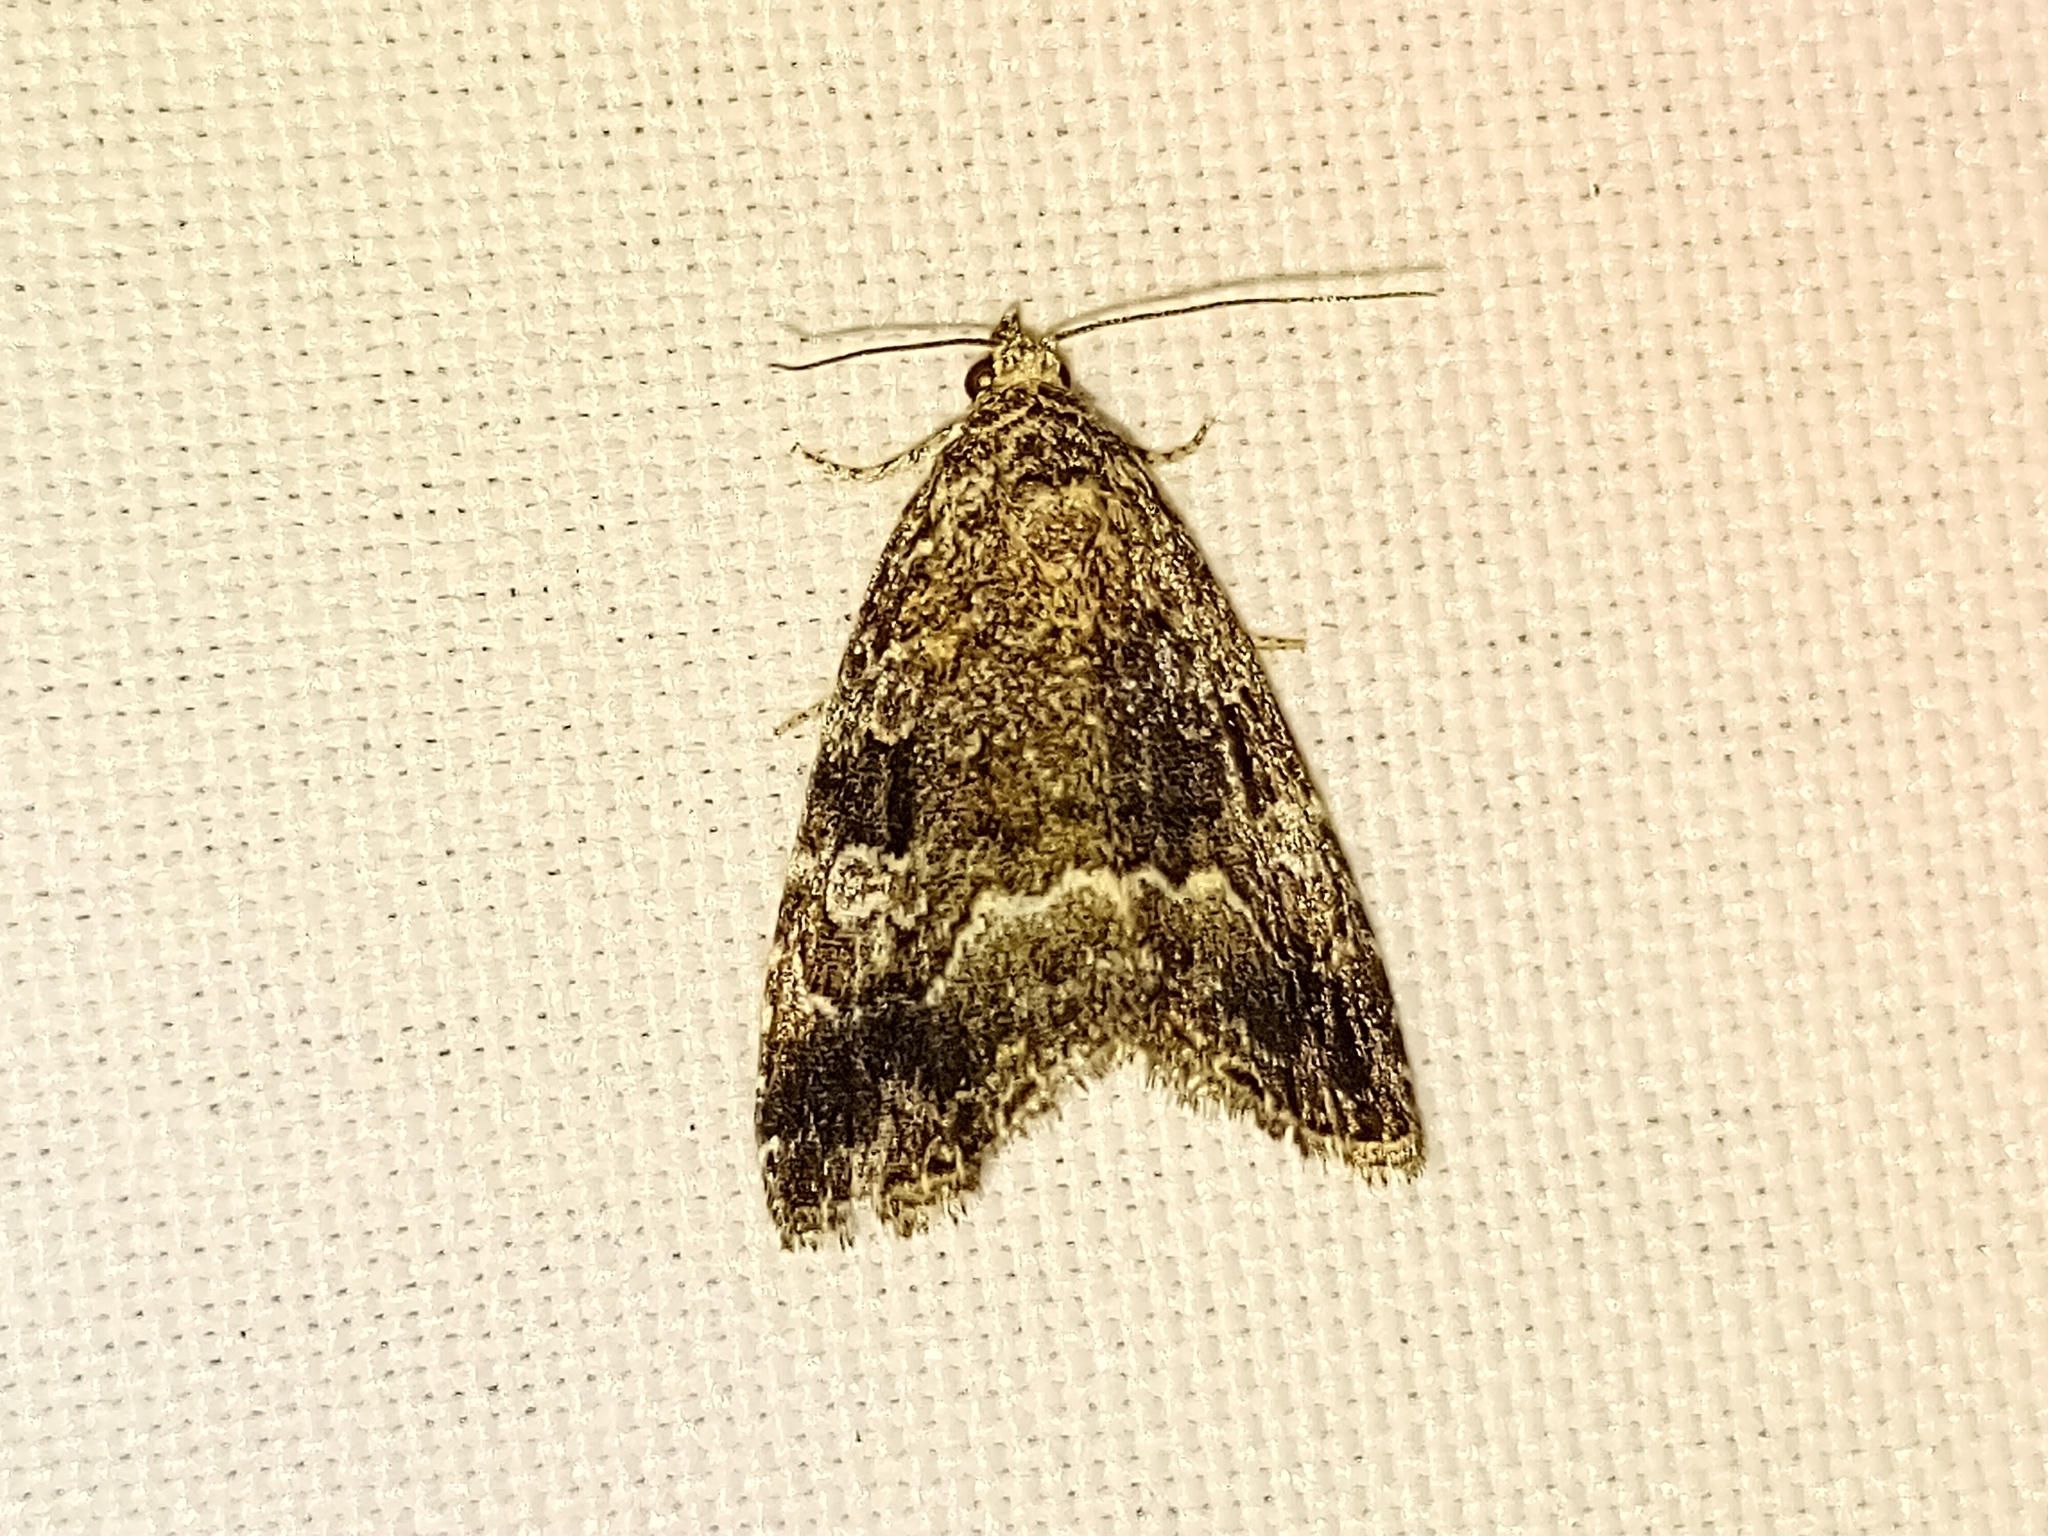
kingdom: Animalia
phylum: Arthropoda
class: Insecta
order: Lepidoptera
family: Noctuidae
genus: Deltote
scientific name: Deltote pygarga
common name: Marbled white spot
